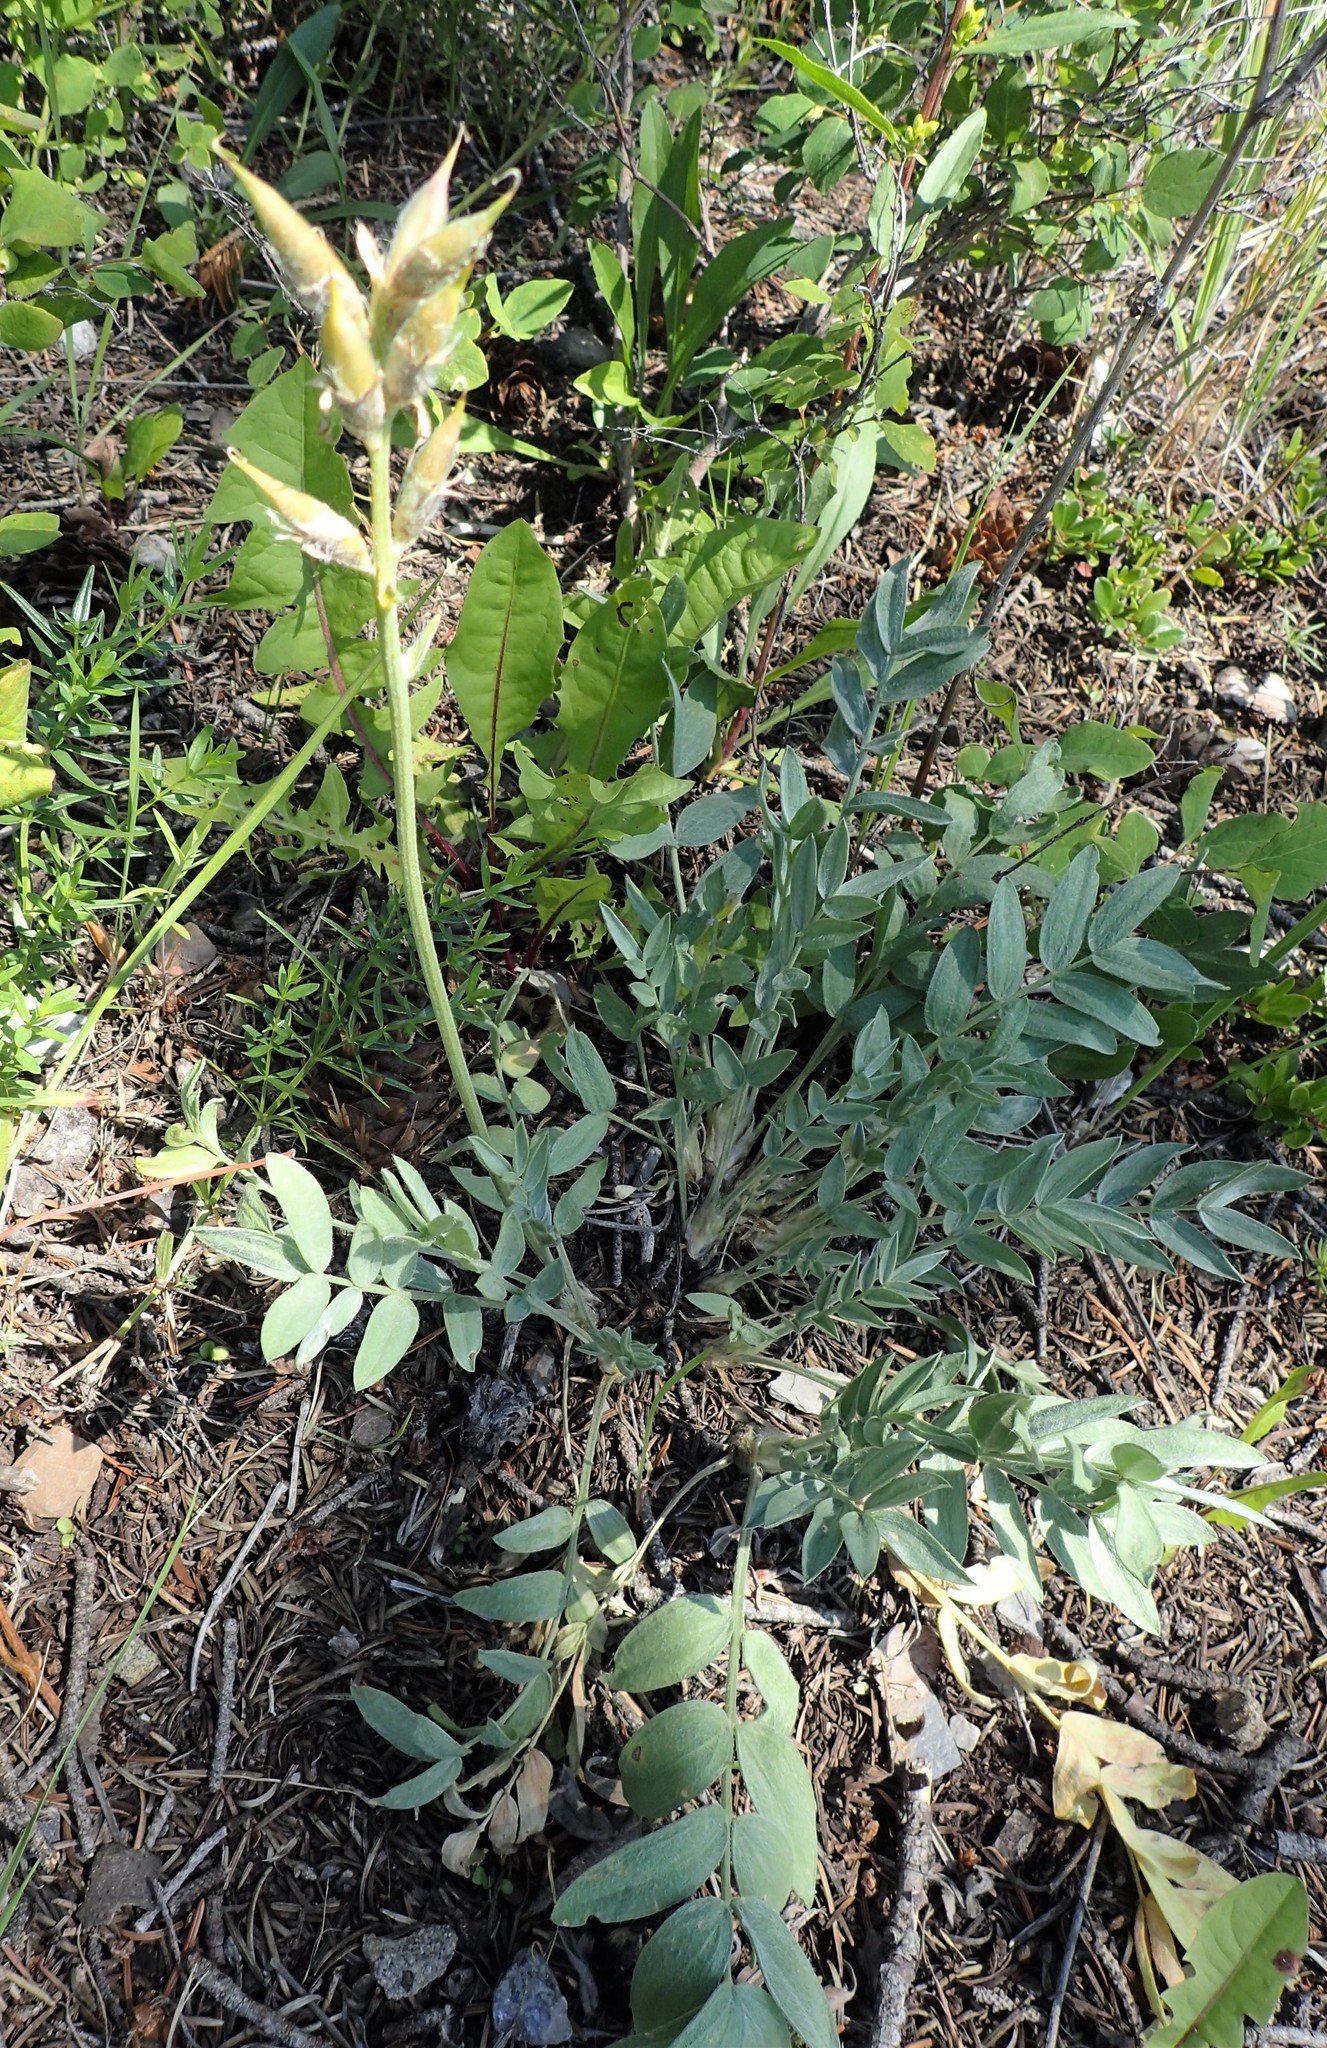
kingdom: Plantae
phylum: Tracheophyta
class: Magnoliopsida
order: Fabales
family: Fabaceae
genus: Oxytropis
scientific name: Oxytropis sericea
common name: Silky locoweed
